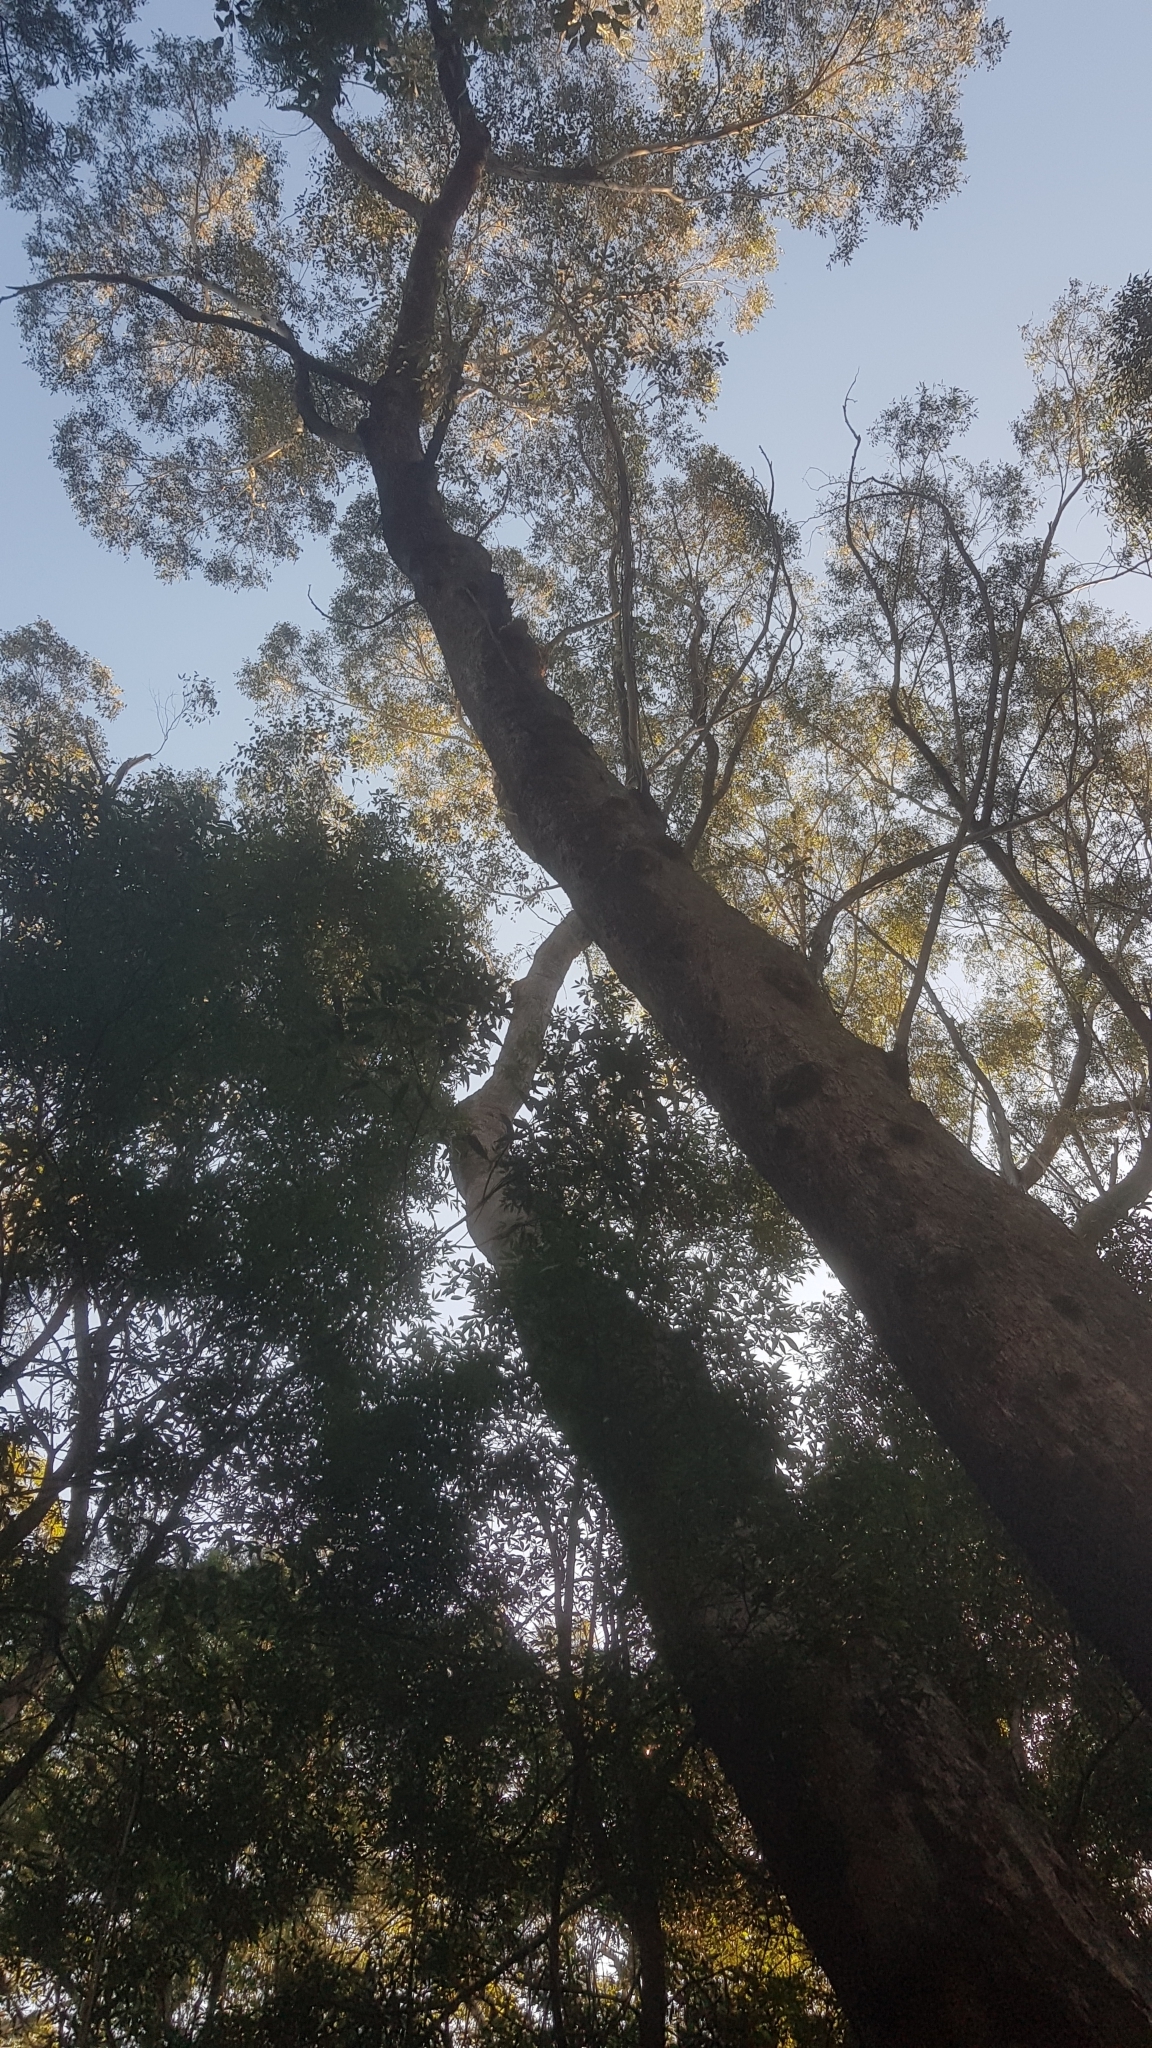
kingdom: Fungi
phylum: Basidiomycota
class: Agaricomycetes
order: Polyporales
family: Laetiporaceae
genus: Laetiporus
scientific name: Laetiporus portentosus
